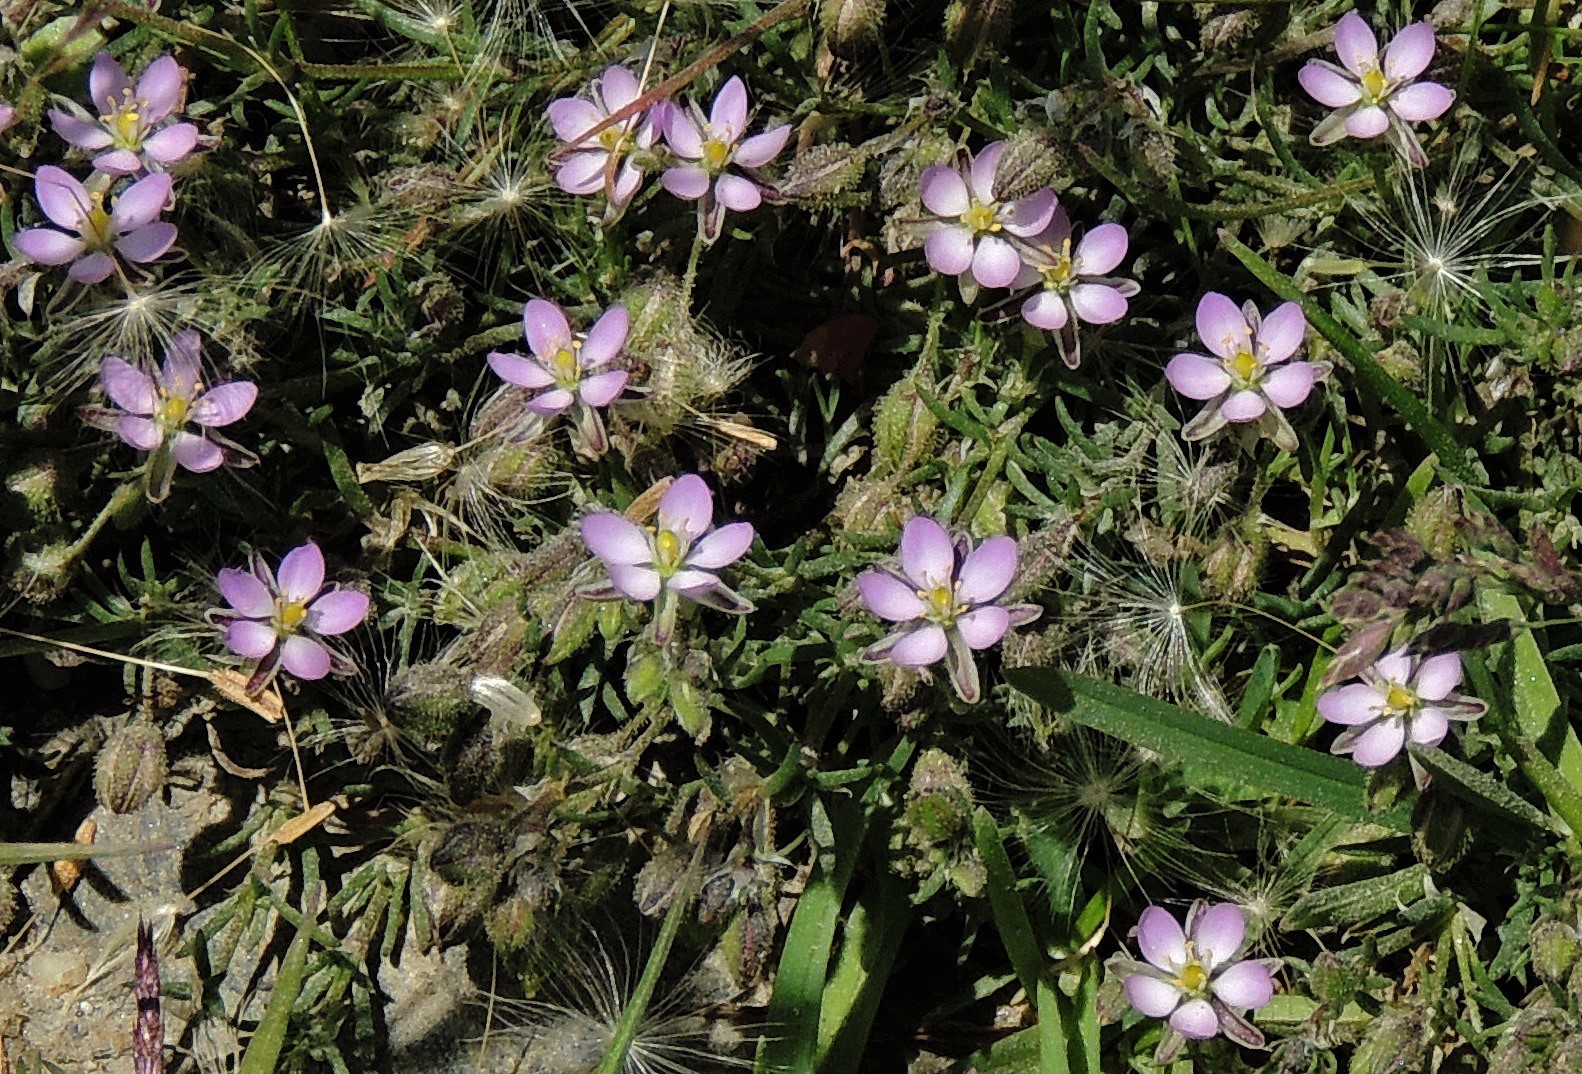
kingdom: Plantae
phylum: Tracheophyta
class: Magnoliopsida
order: Caryophyllales
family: Caryophyllaceae
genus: Spergularia
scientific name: Spergularia marina
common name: Lesser sea-spurrey
